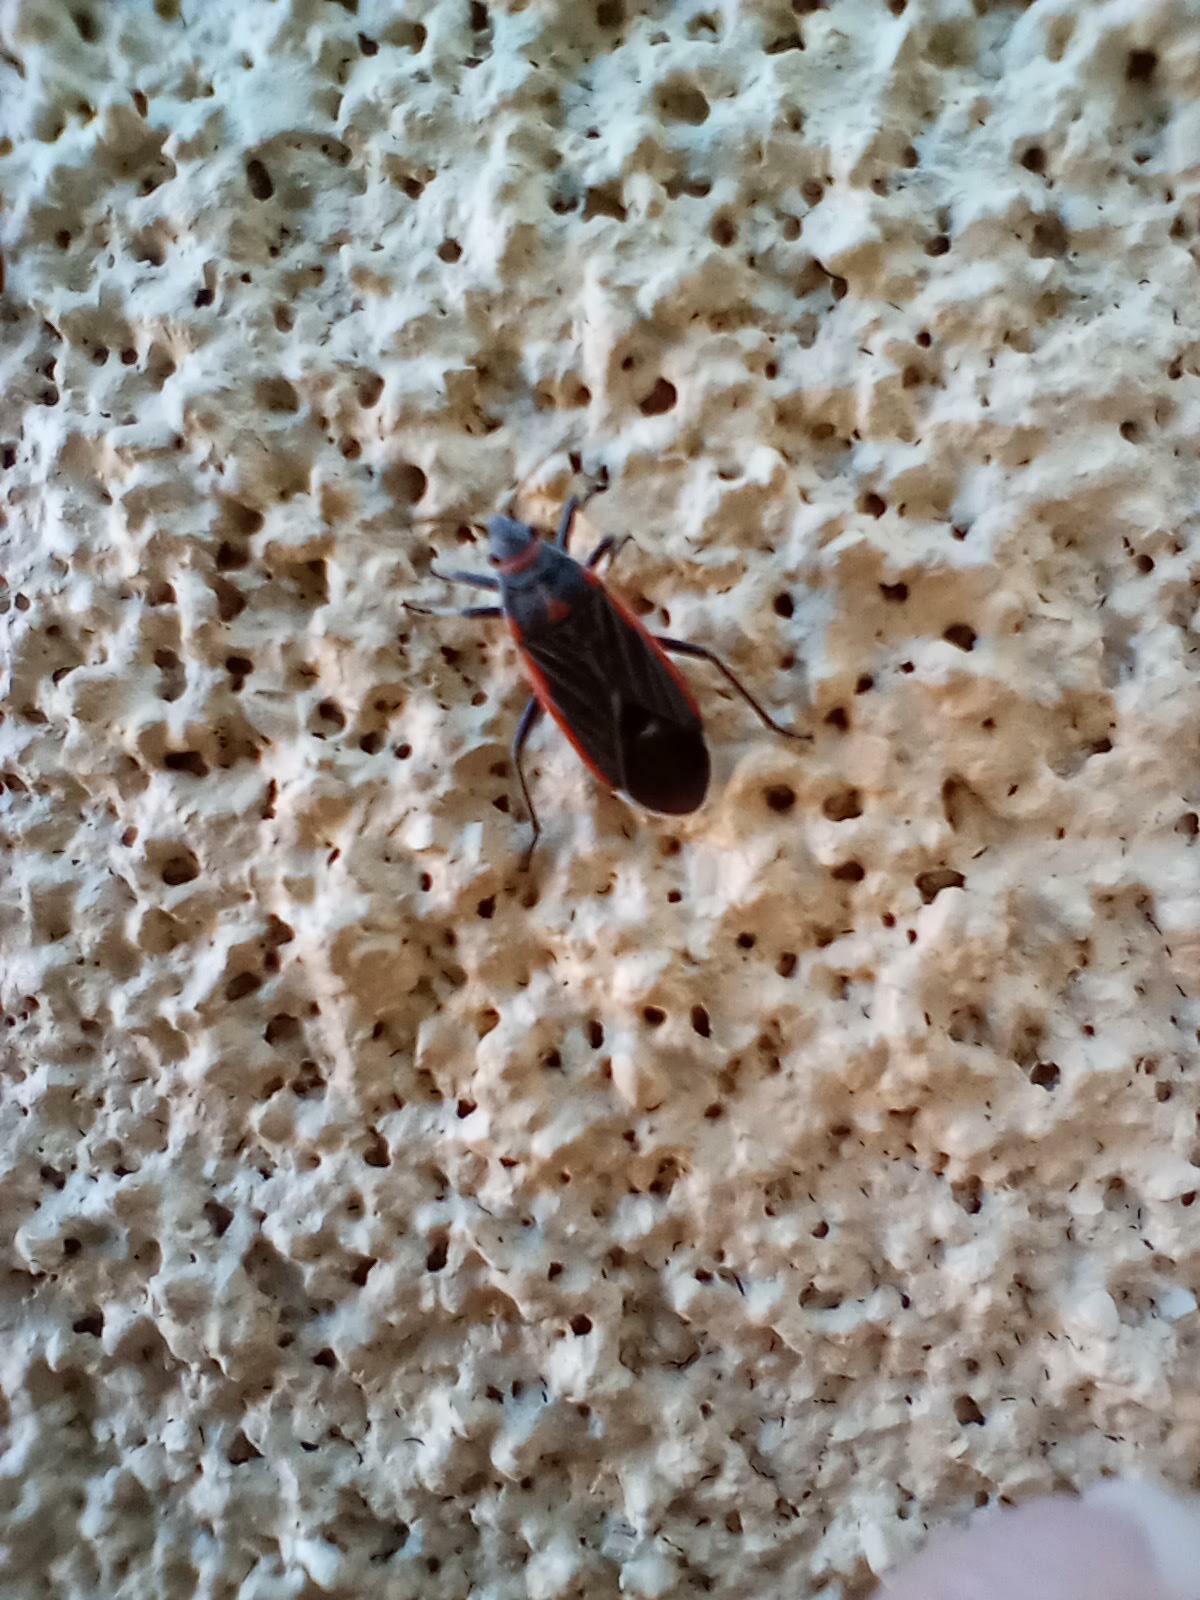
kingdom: Animalia
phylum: Arthropoda
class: Insecta
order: Hemiptera
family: Lygaeidae
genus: Melacoryphus
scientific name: Melacoryphus lateralis
